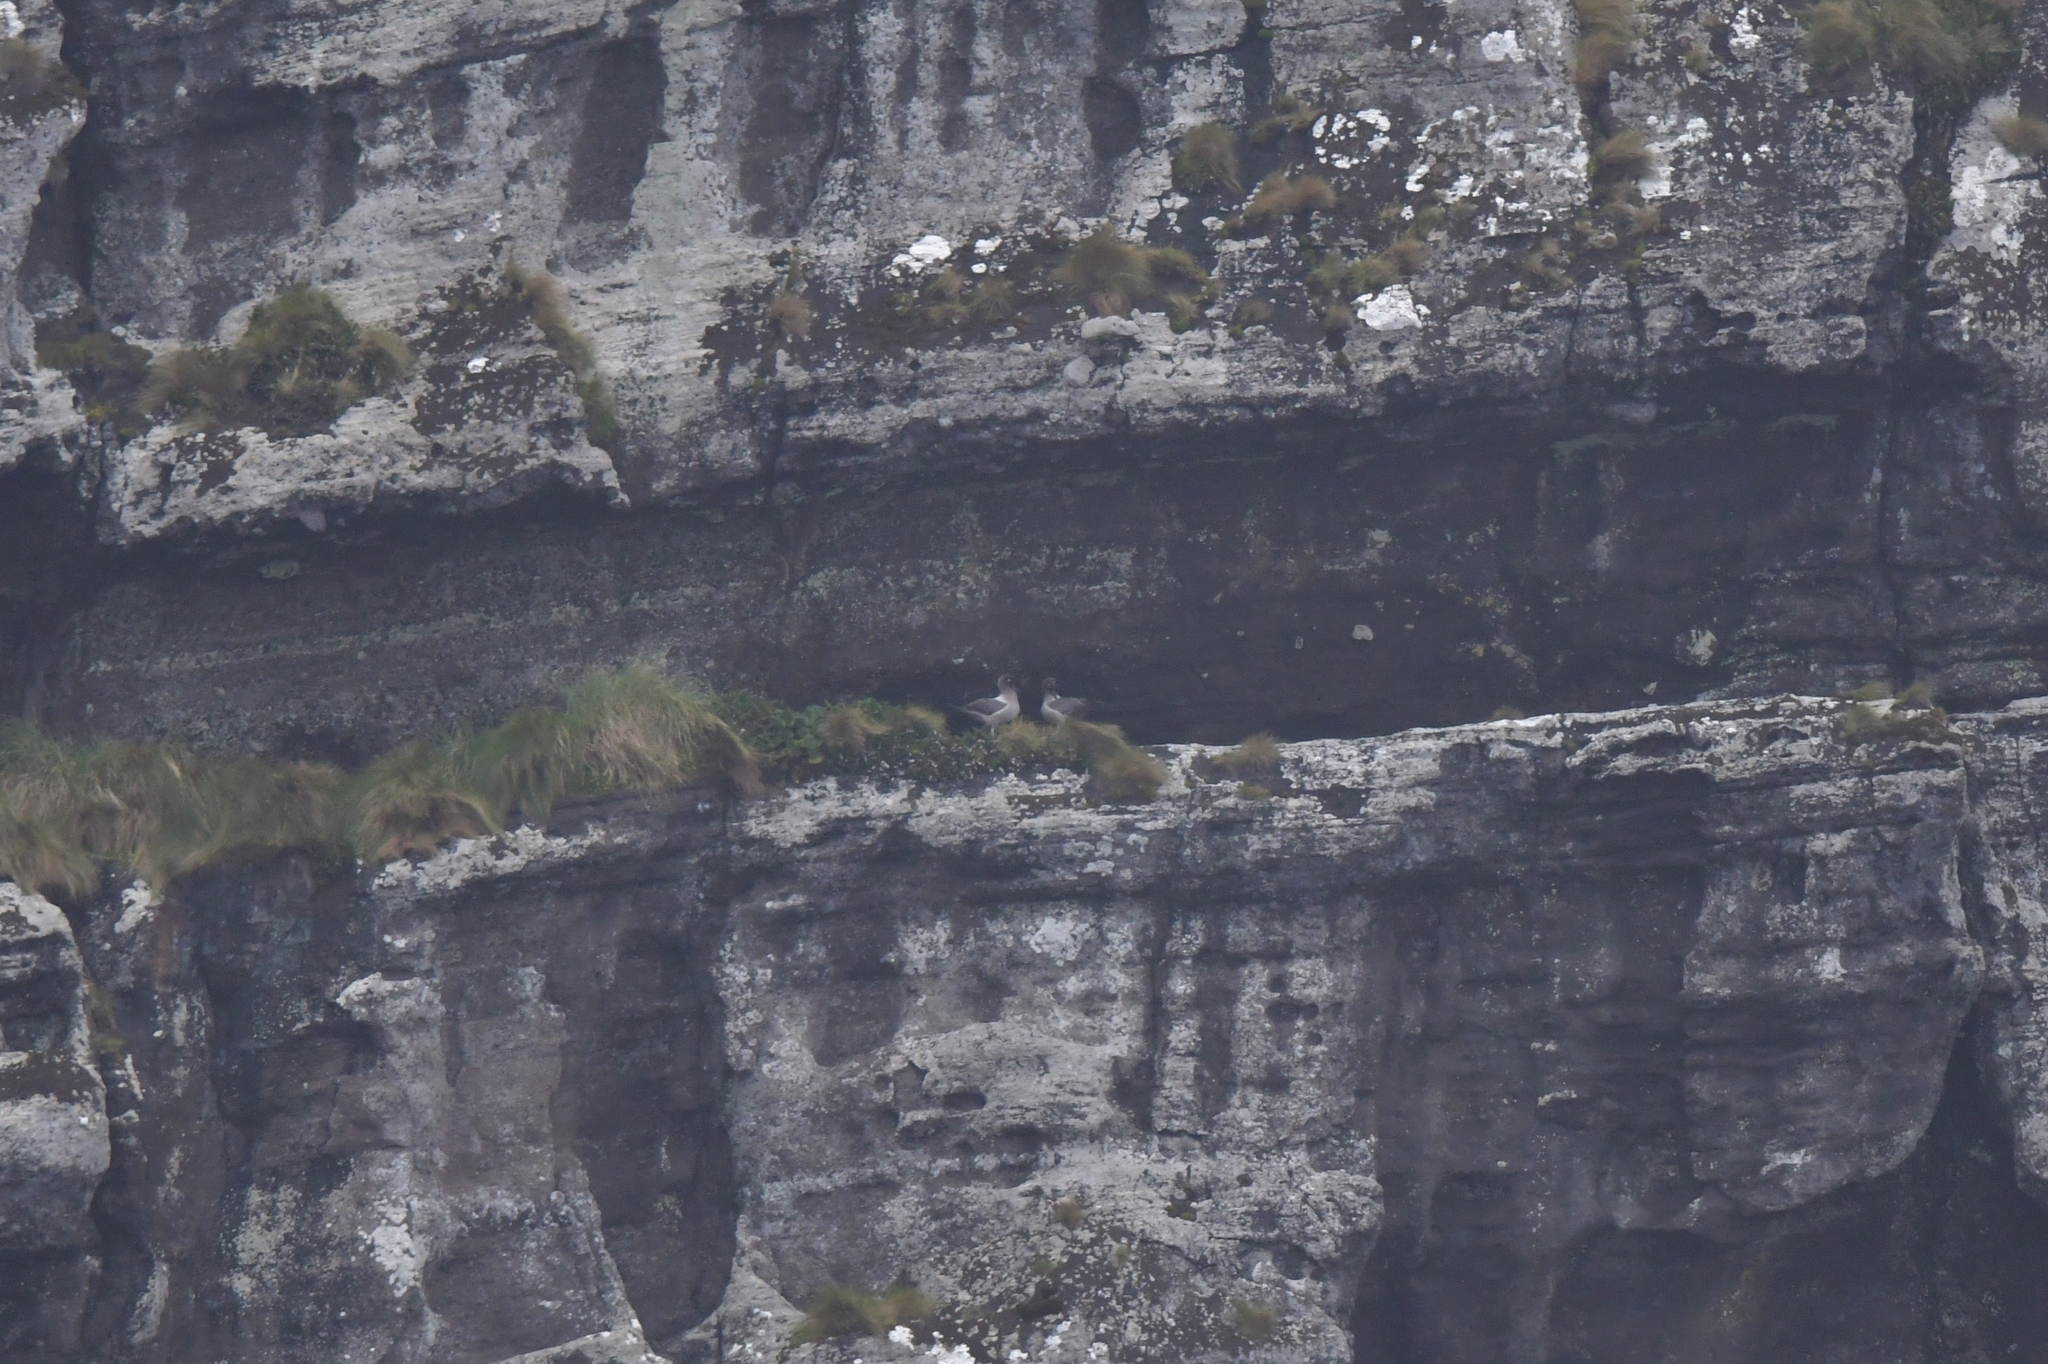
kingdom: Animalia
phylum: Chordata
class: Aves
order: Procellariiformes
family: Diomedeidae
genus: Phoebetria
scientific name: Phoebetria palpebrata
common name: Light-mantled albatross
